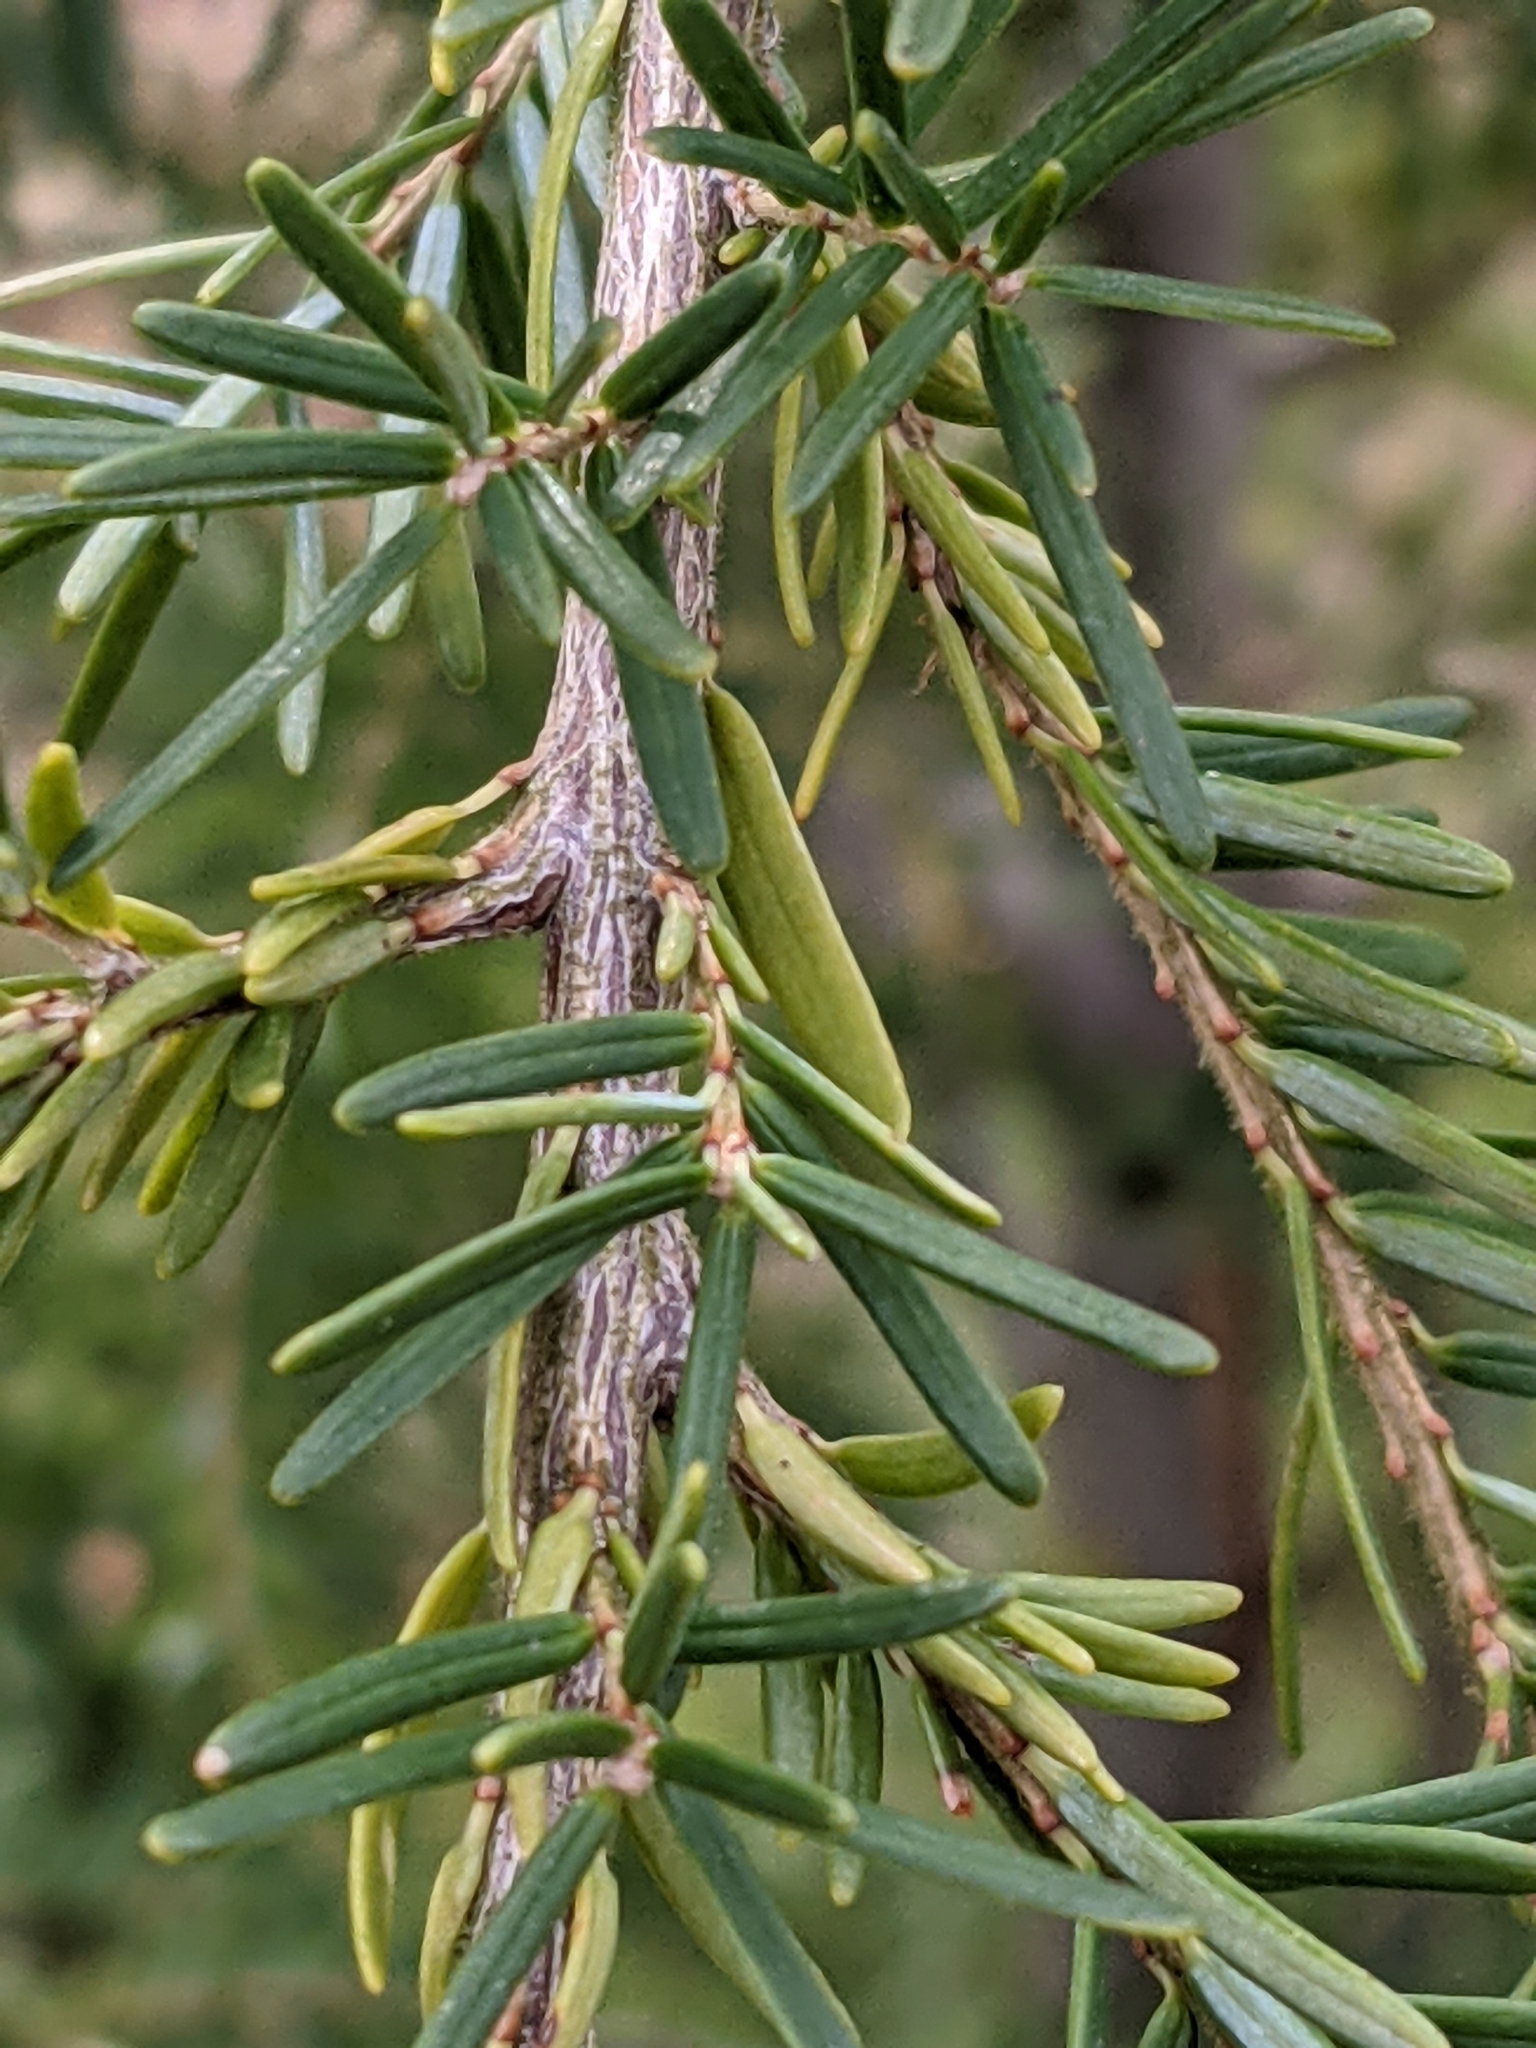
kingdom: Plantae
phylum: Tracheophyta
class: Pinopsida
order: Pinales
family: Pinaceae
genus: Tsuga
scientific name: Tsuga heterophylla
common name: Western hemlock
